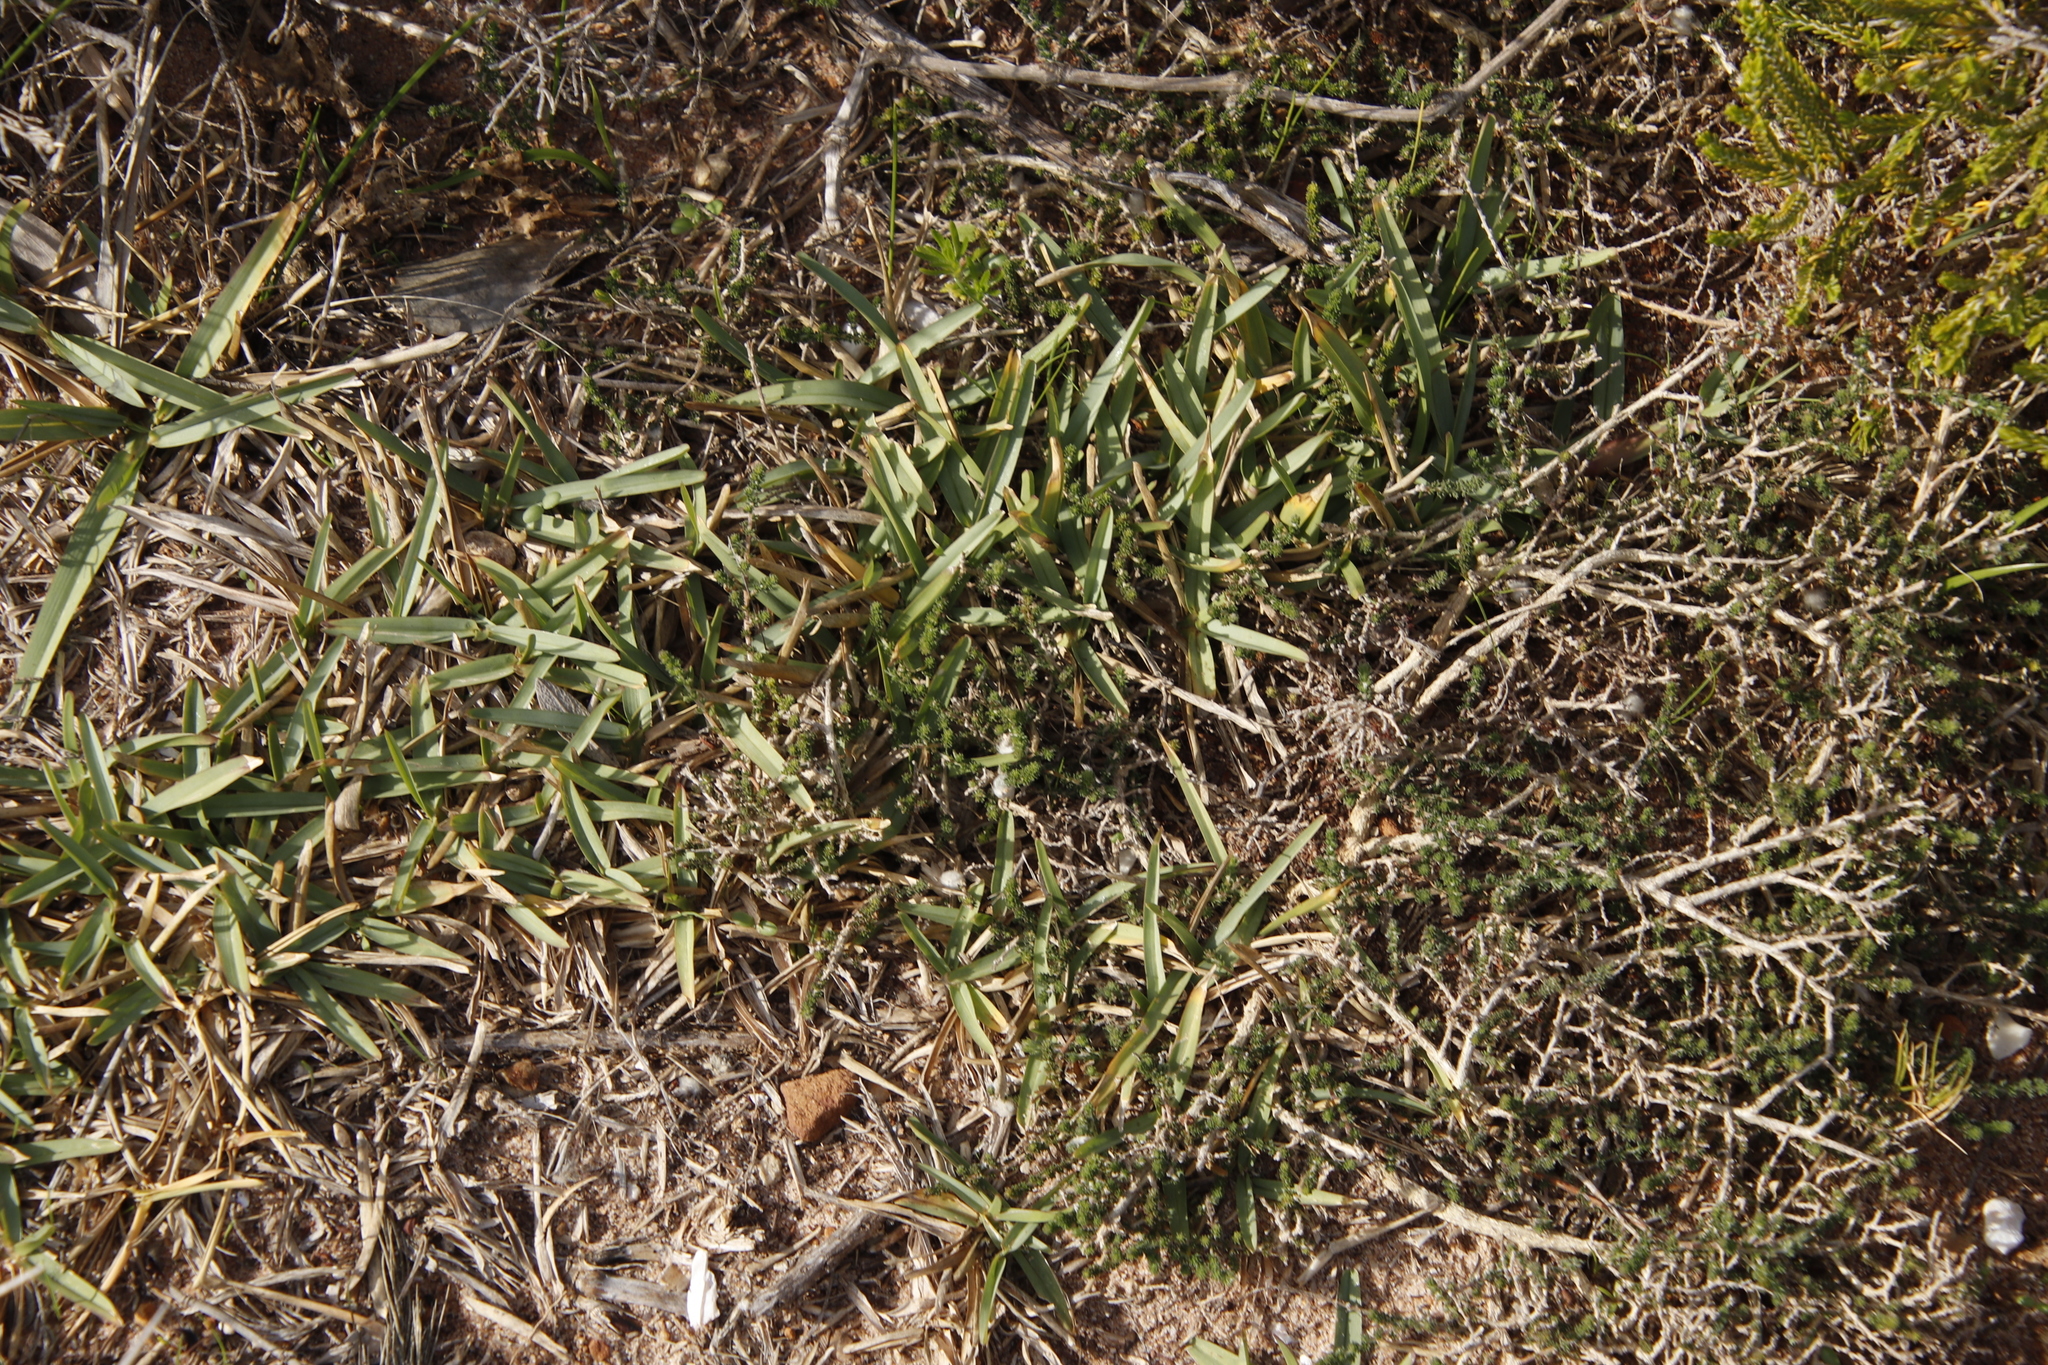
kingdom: Plantae
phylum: Tracheophyta
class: Liliopsida
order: Poales
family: Poaceae
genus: Stenotaphrum
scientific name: Stenotaphrum secundatum
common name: St. augustine grass
